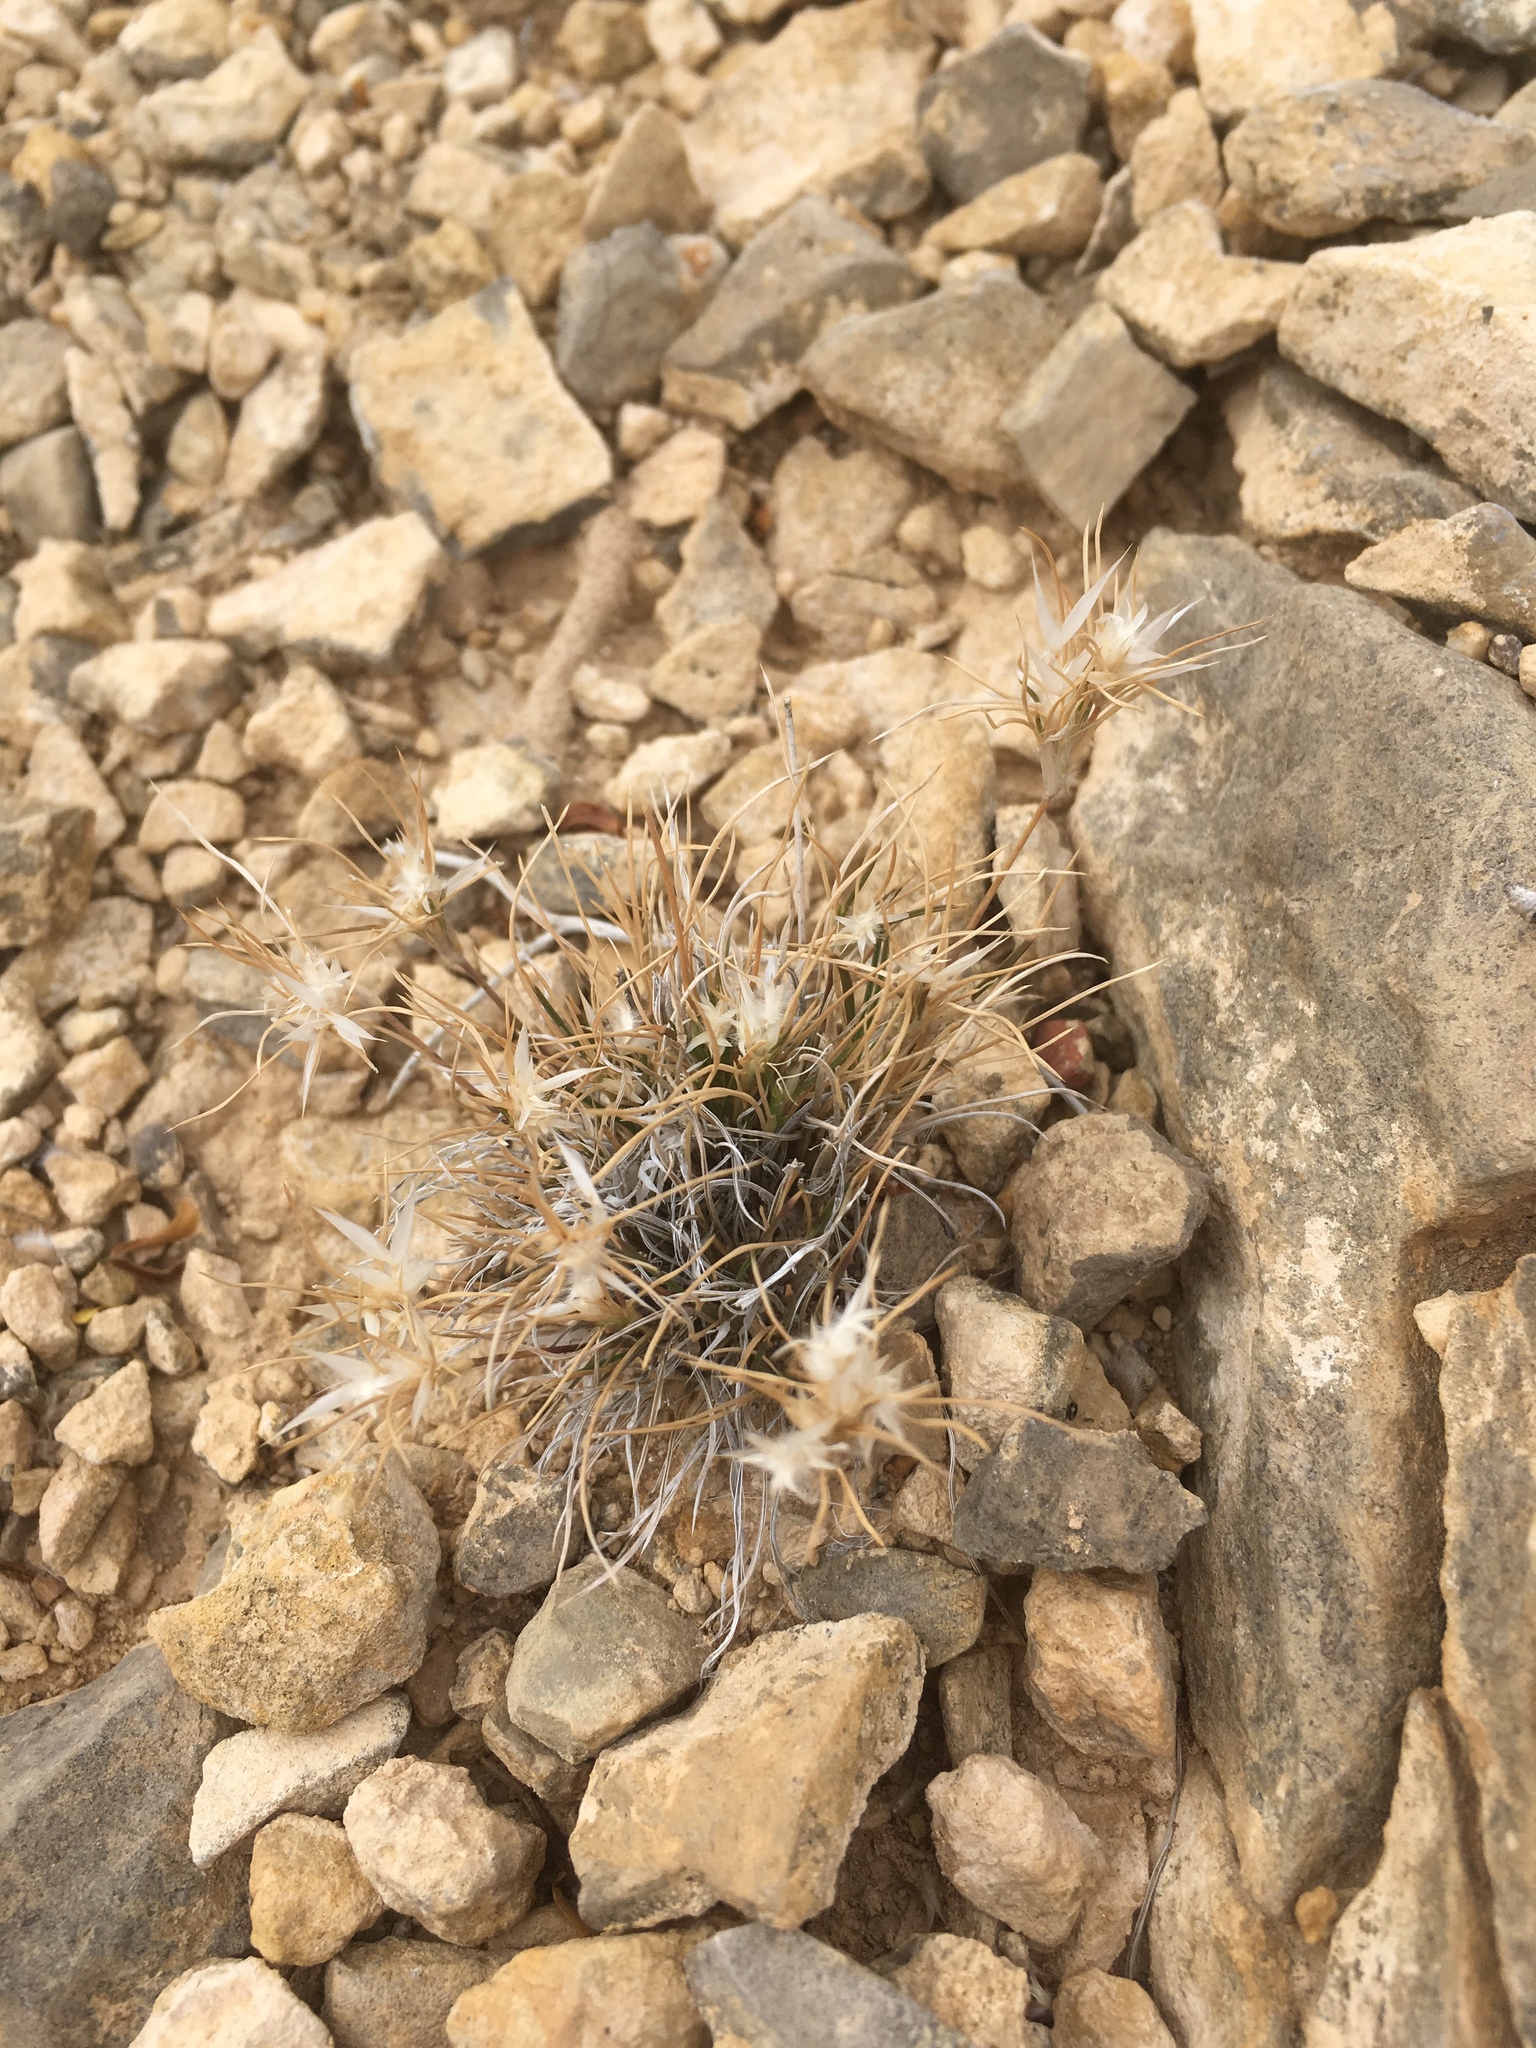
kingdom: Plantae
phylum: Tracheophyta
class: Liliopsida
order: Poales
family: Poaceae
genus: Dasyochloa
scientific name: Dasyochloa pulchella
